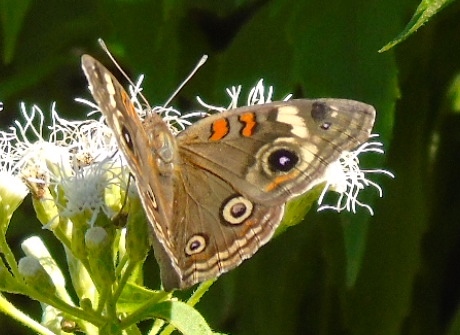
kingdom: Animalia
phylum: Arthropoda
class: Insecta
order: Lepidoptera
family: Nymphalidae
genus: Junonia
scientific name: Junonia coenia
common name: Common buckeye
